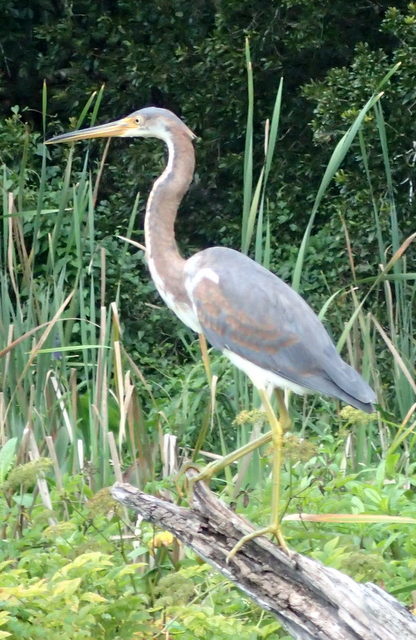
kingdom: Animalia
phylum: Chordata
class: Aves
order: Pelecaniformes
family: Ardeidae
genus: Egretta
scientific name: Egretta tricolor
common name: Tricolored heron
